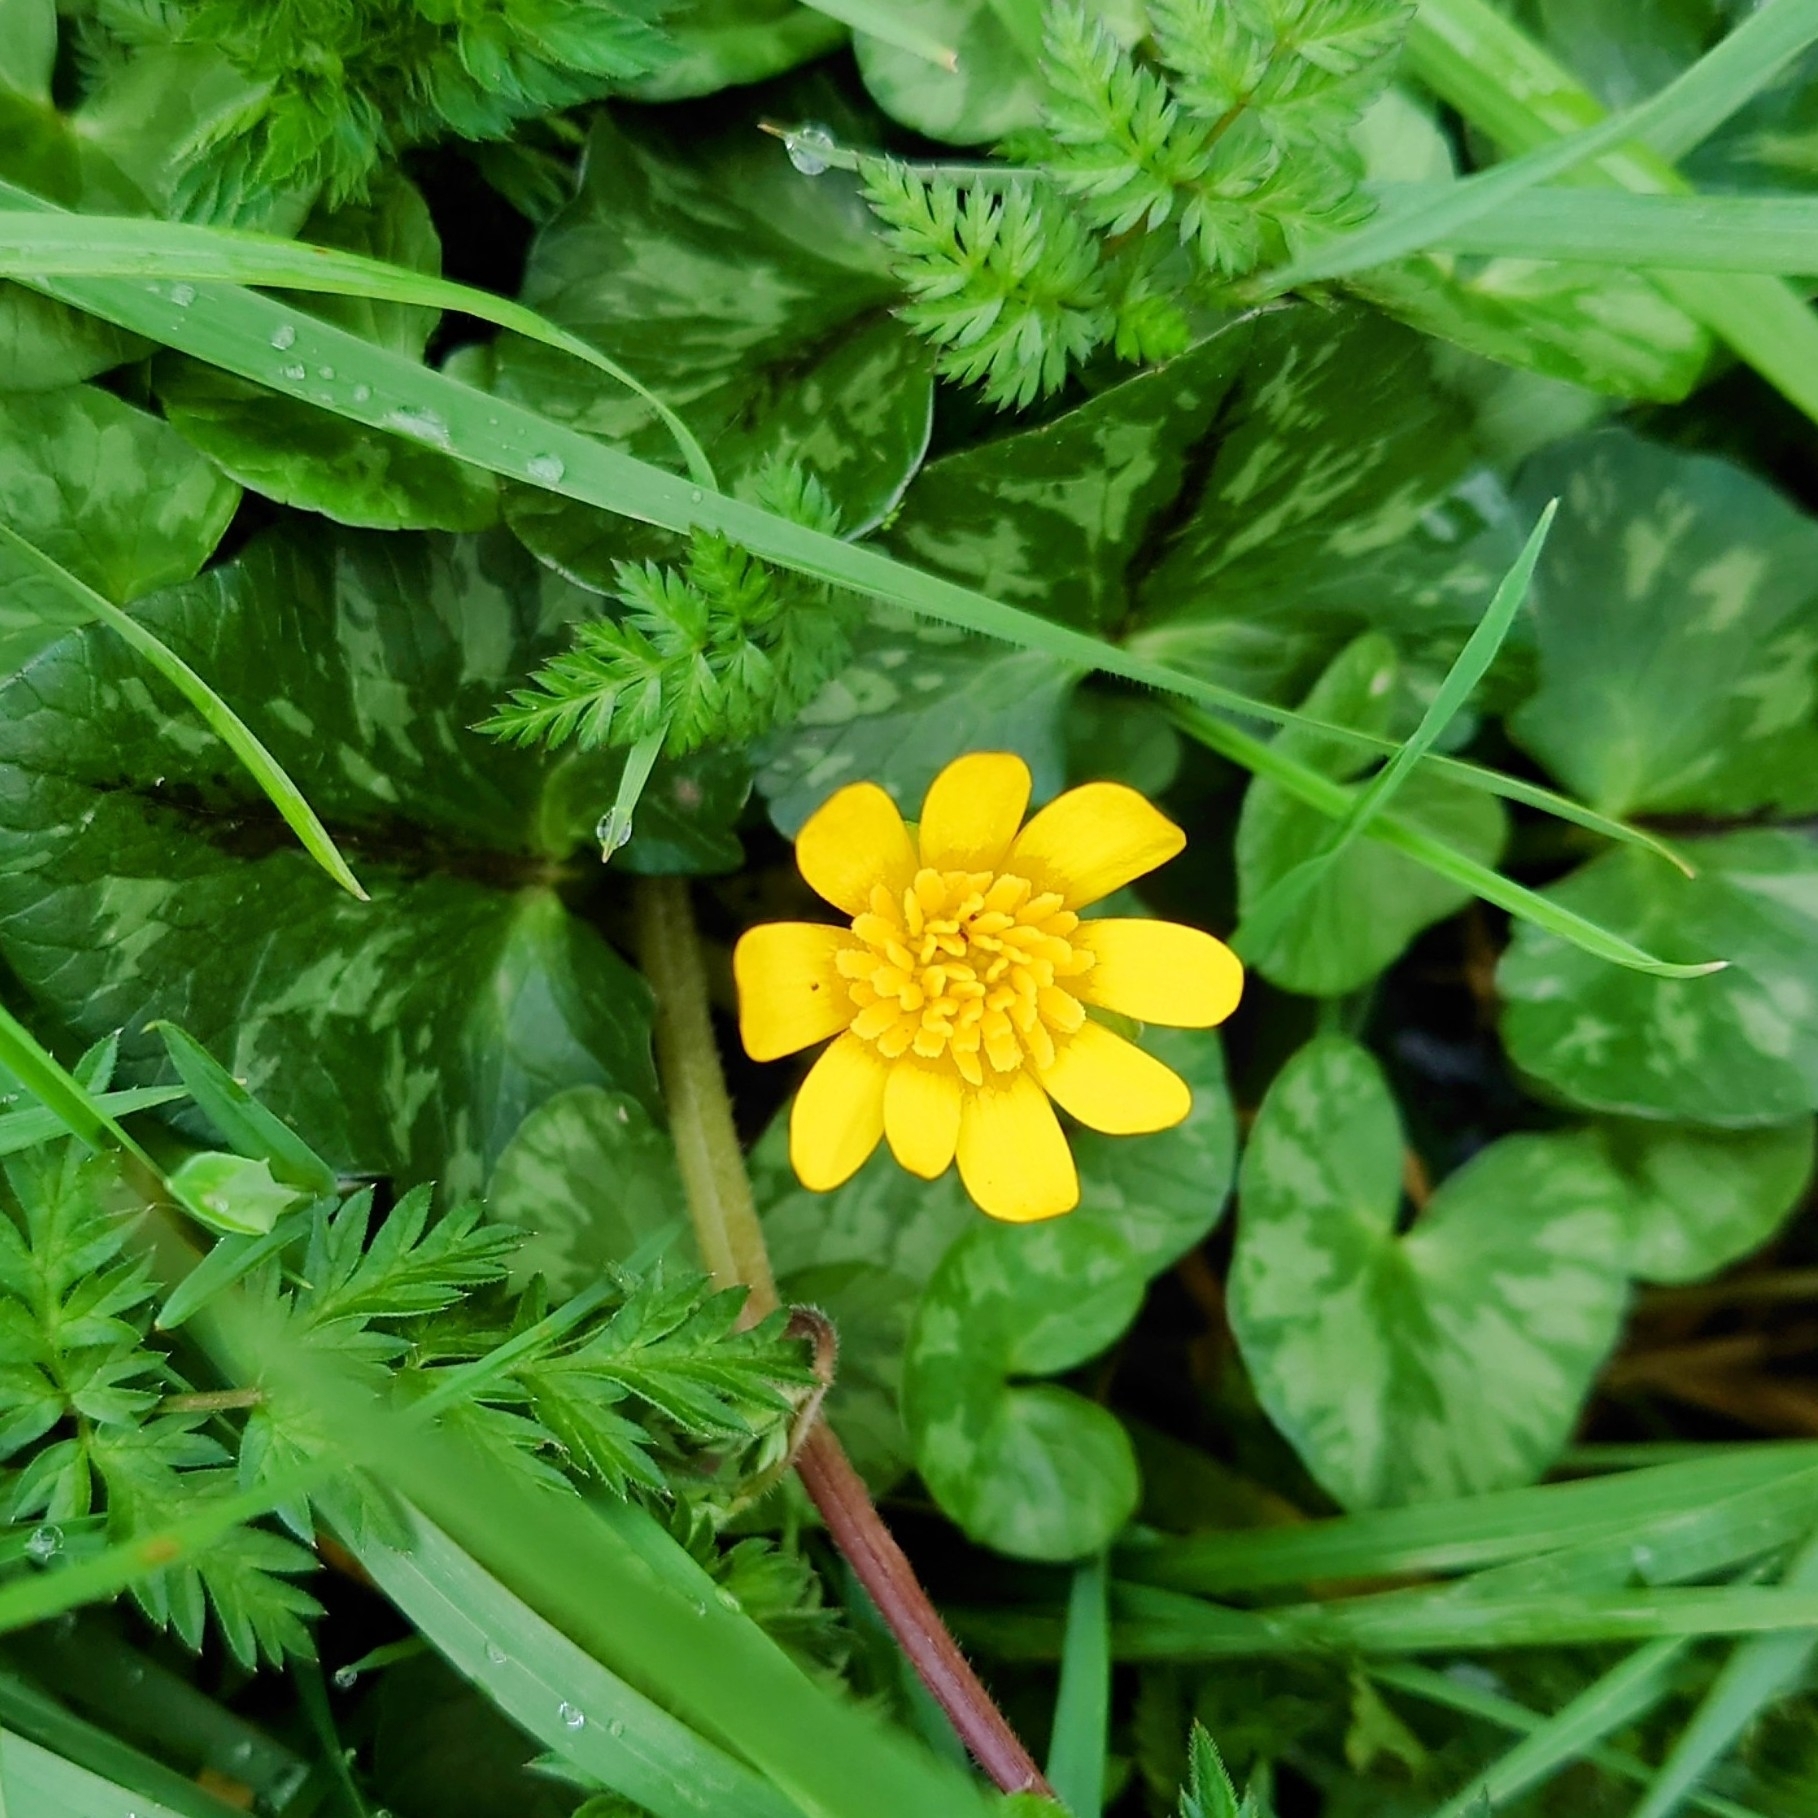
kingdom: Plantae
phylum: Tracheophyta
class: Magnoliopsida
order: Ranunculales
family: Ranunculaceae
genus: Ficaria
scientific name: Ficaria verna
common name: Lesser celandine
